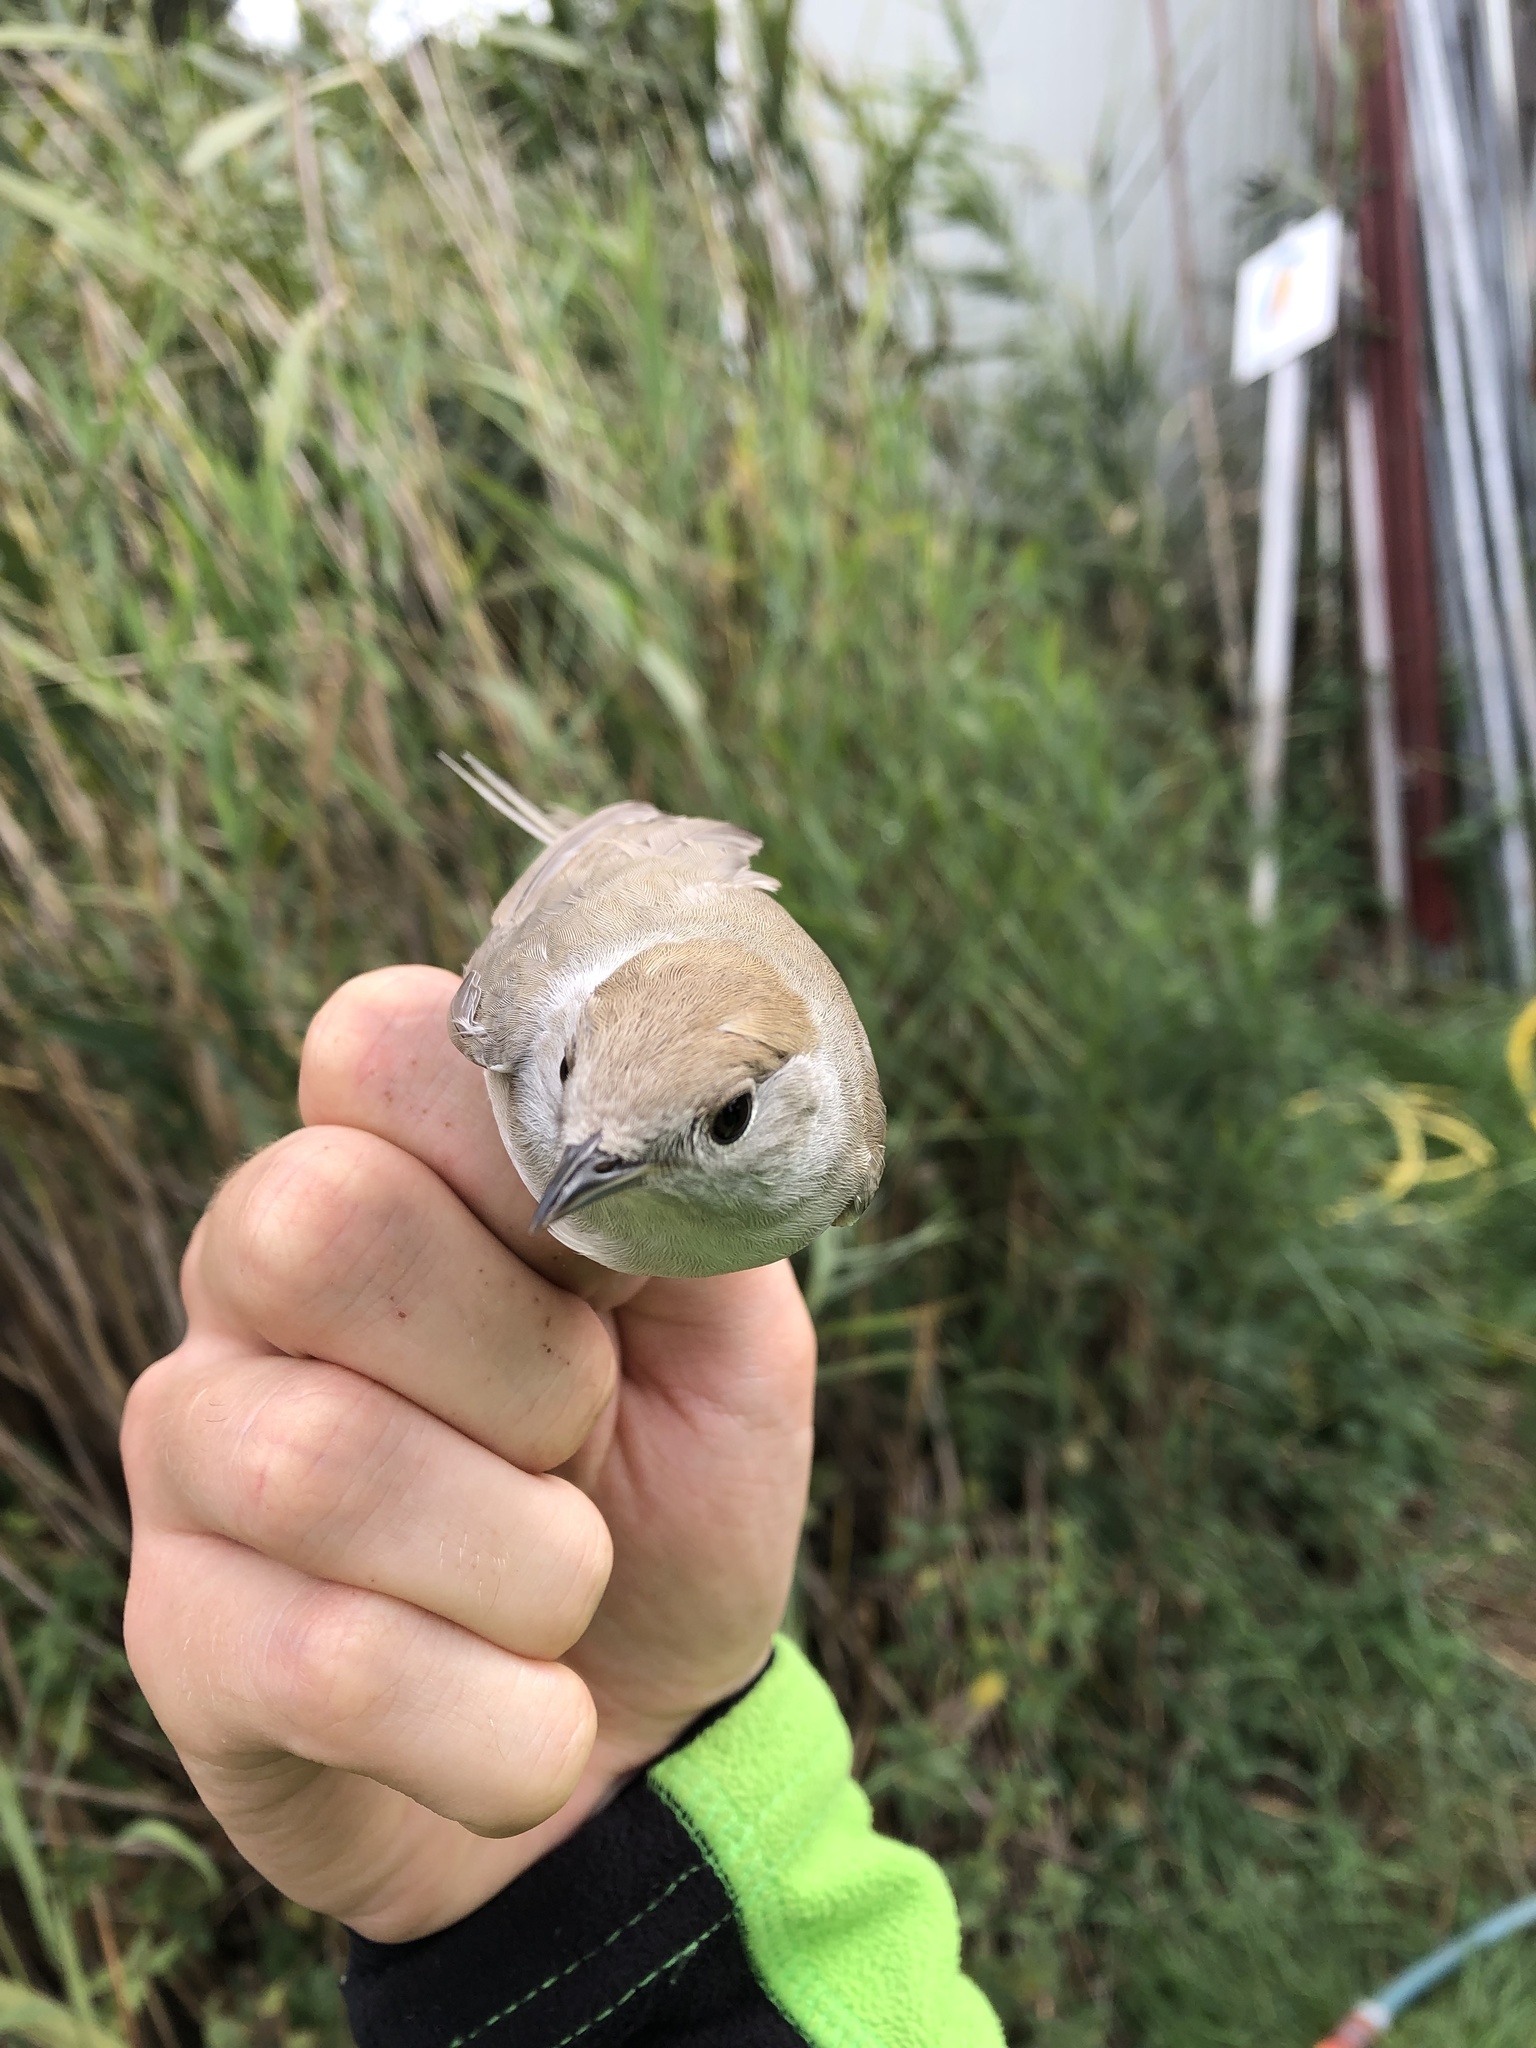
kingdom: Animalia
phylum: Chordata
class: Aves
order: Passeriformes
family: Sylviidae
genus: Sylvia
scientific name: Sylvia atricapilla
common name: Eurasian blackcap
